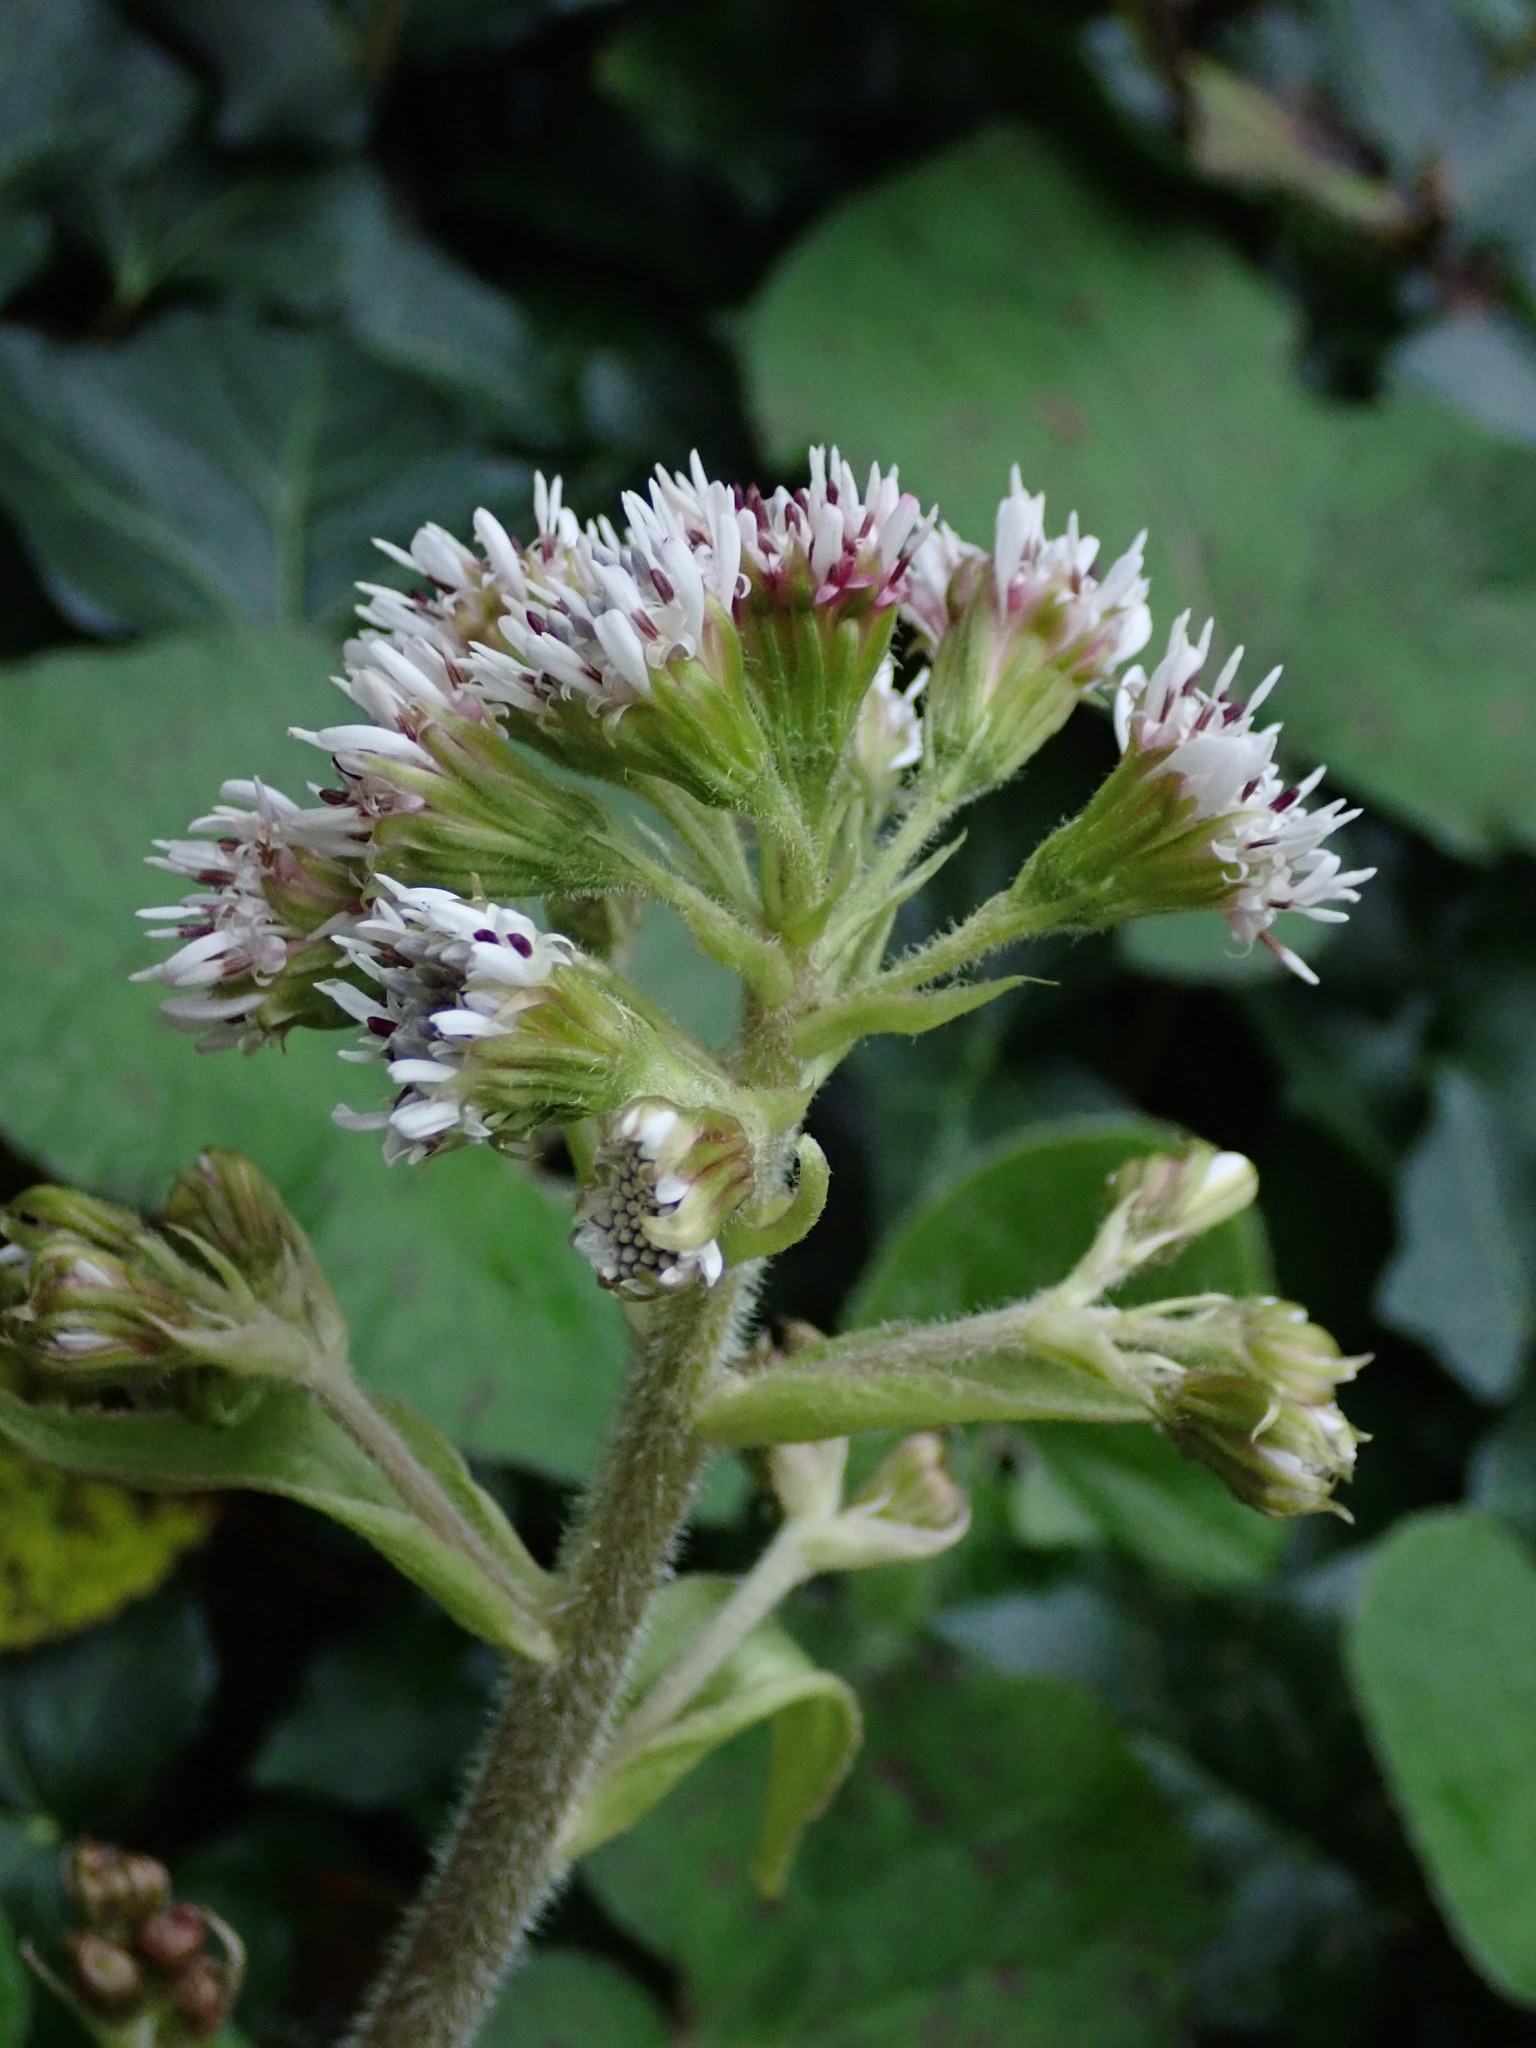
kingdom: Plantae
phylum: Tracheophyta
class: Magnoliopsida
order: Asterales
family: Asteraceae
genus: Petasites
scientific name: Petasites pyrenaicus
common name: Winter heliotrope
